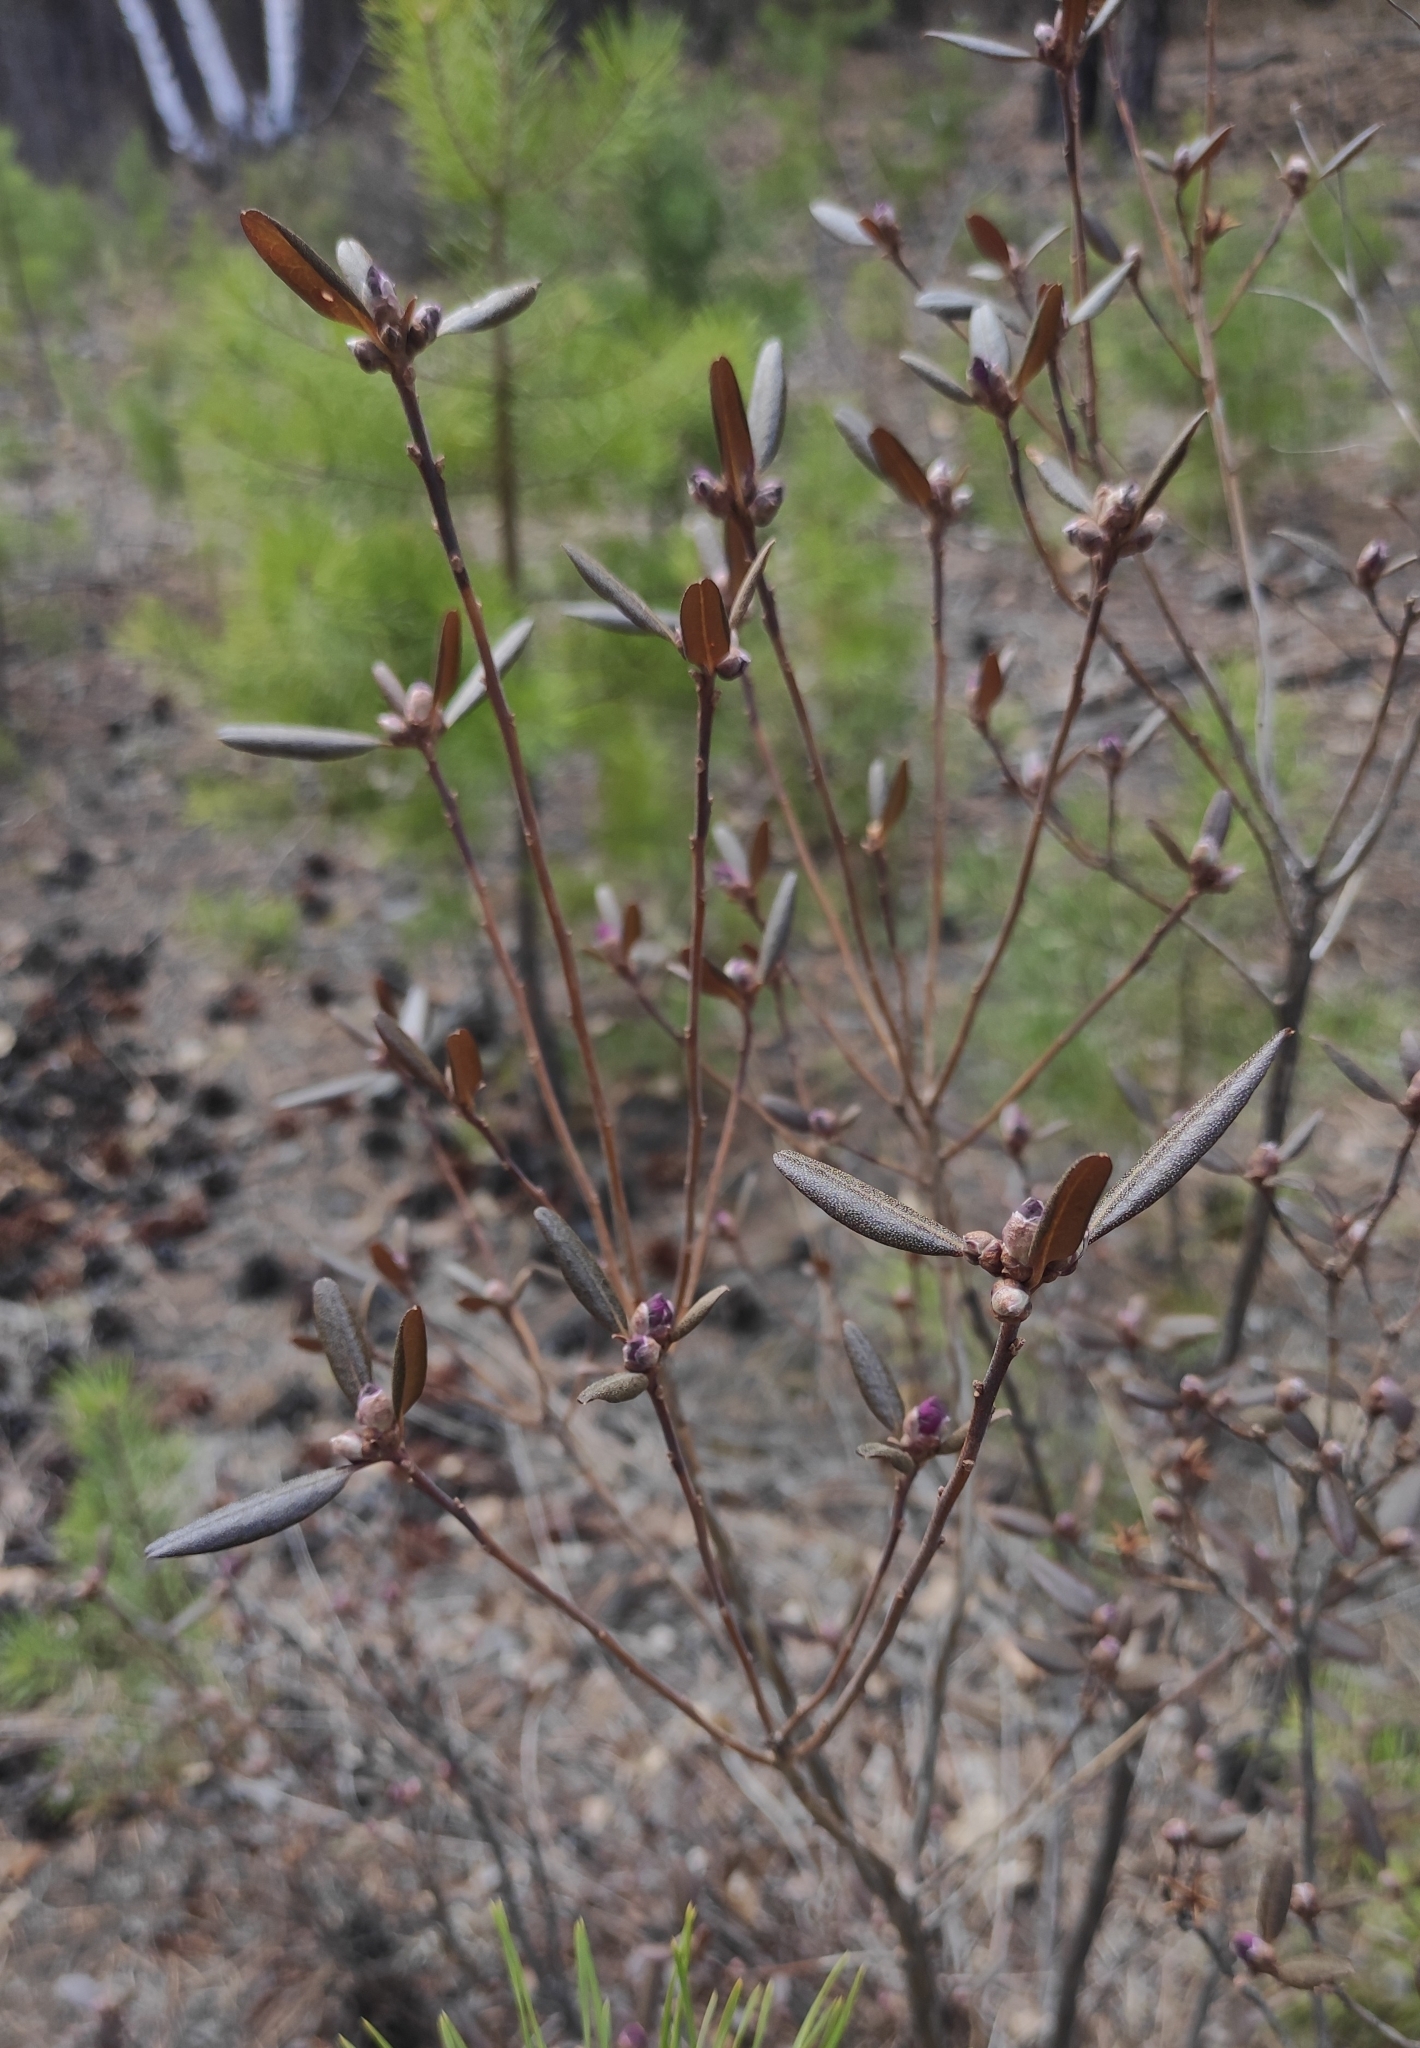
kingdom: Plantae
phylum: Tracheophyta
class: Magnoliopsida
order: Ericales
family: Ericaceae
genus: Rhododendron
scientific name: Rhododendron dauricum
